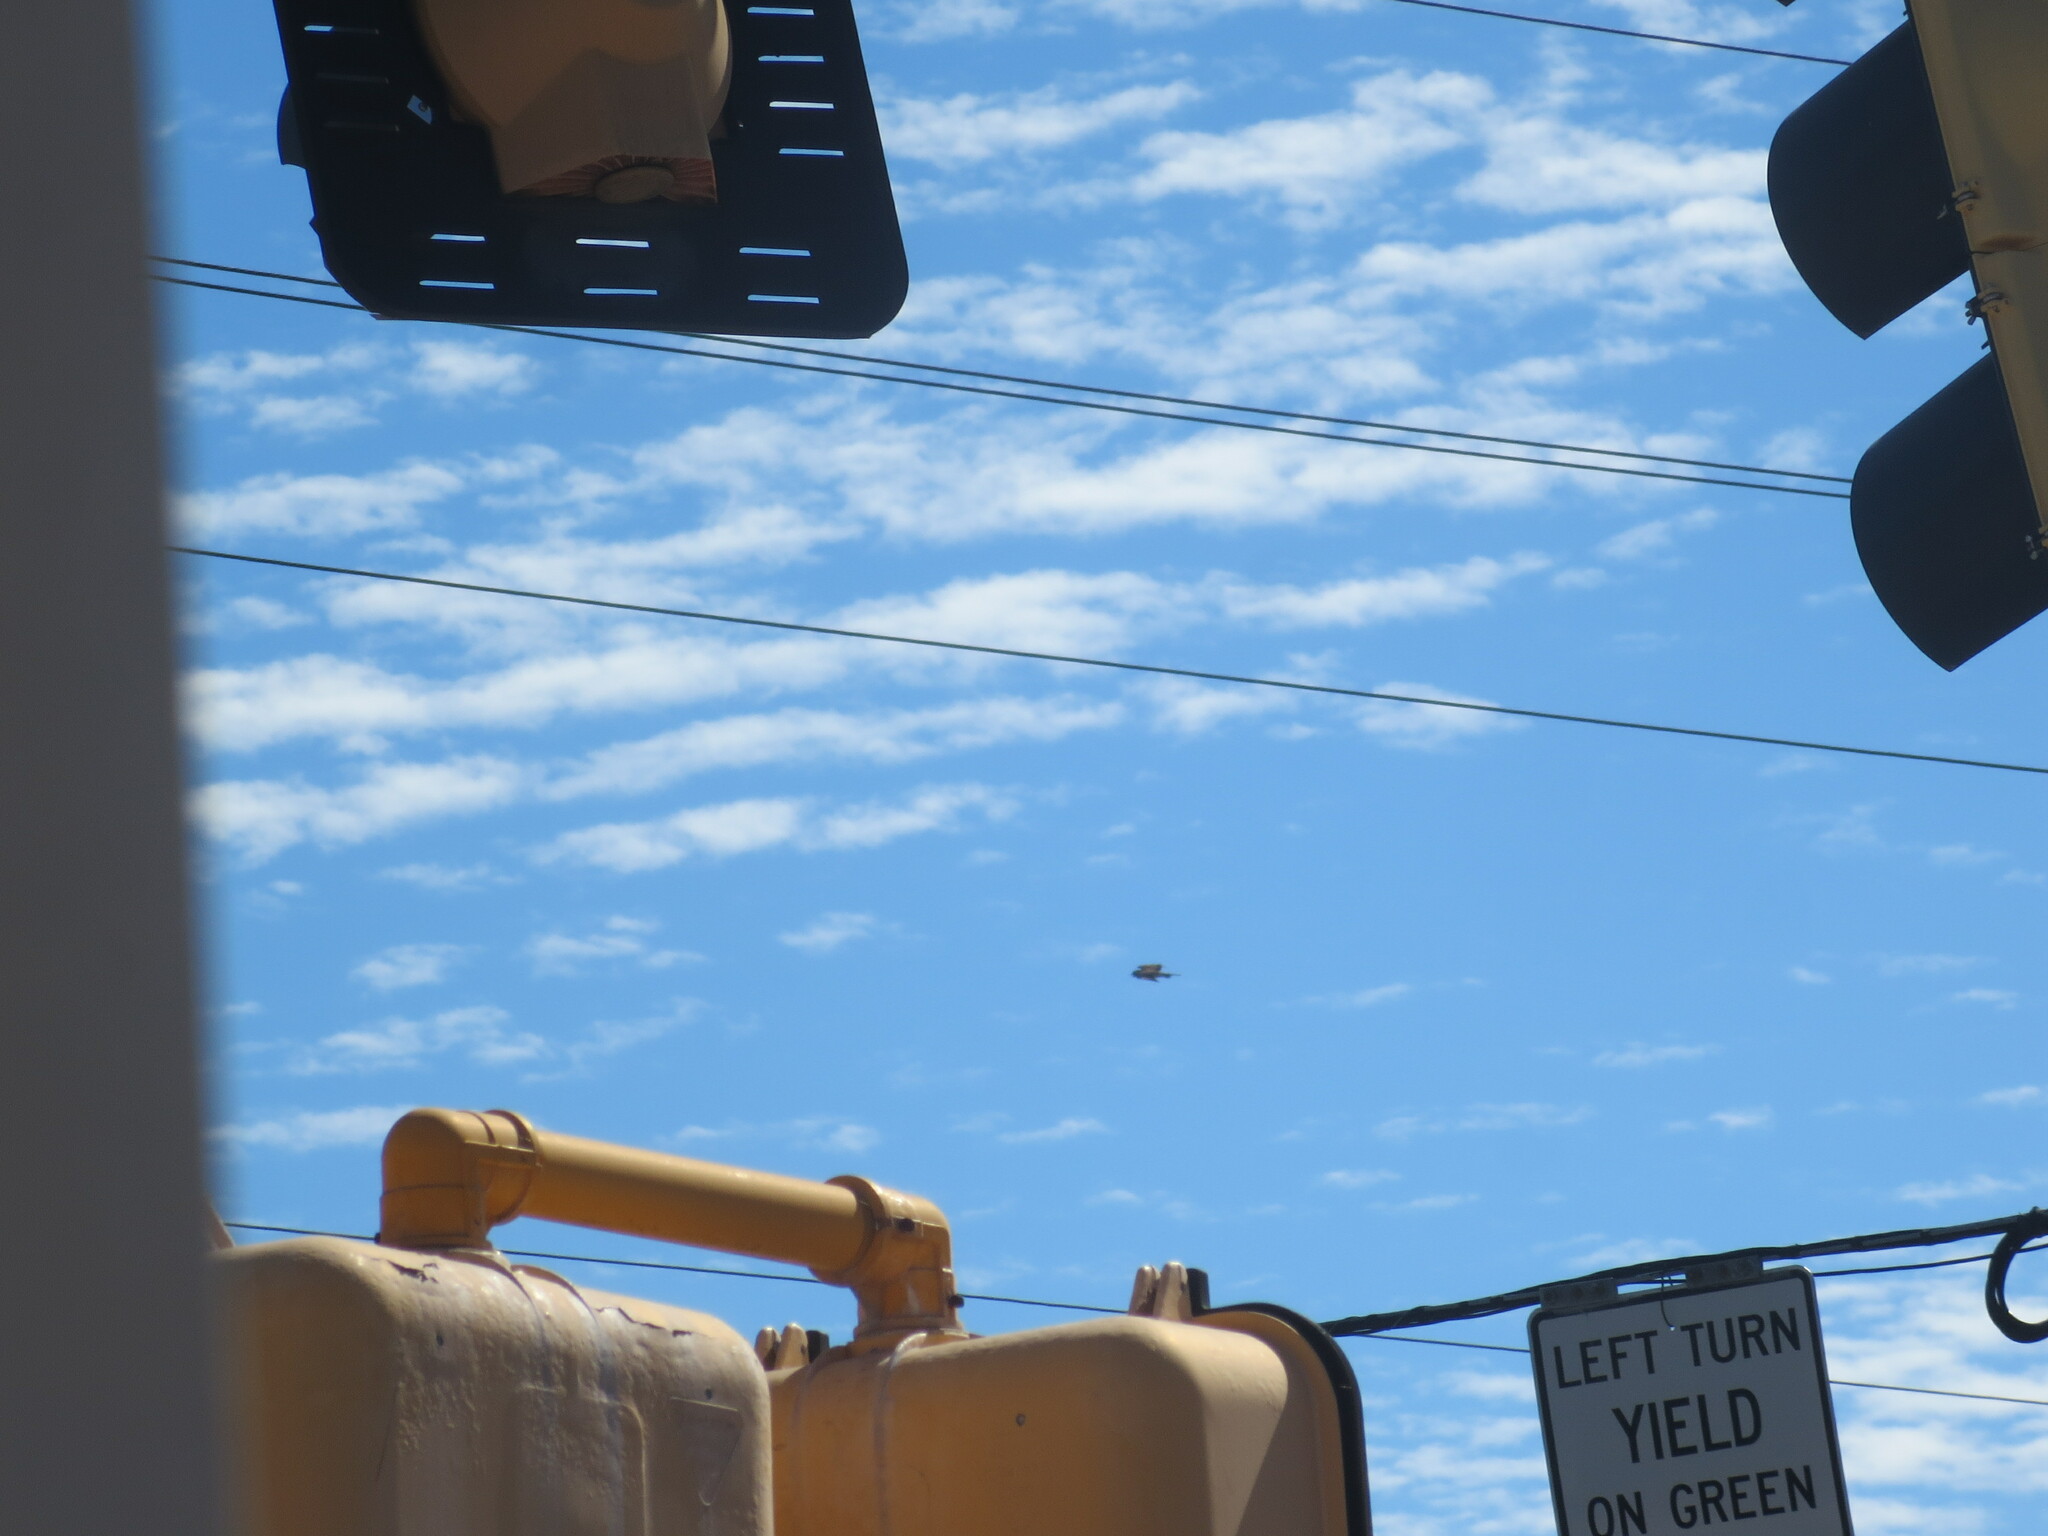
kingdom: Animalia
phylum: Chordata
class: Aves
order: Accipitriformes
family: Pandionidae
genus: Pandion
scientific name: Pandion haliaetus
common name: Osprey
